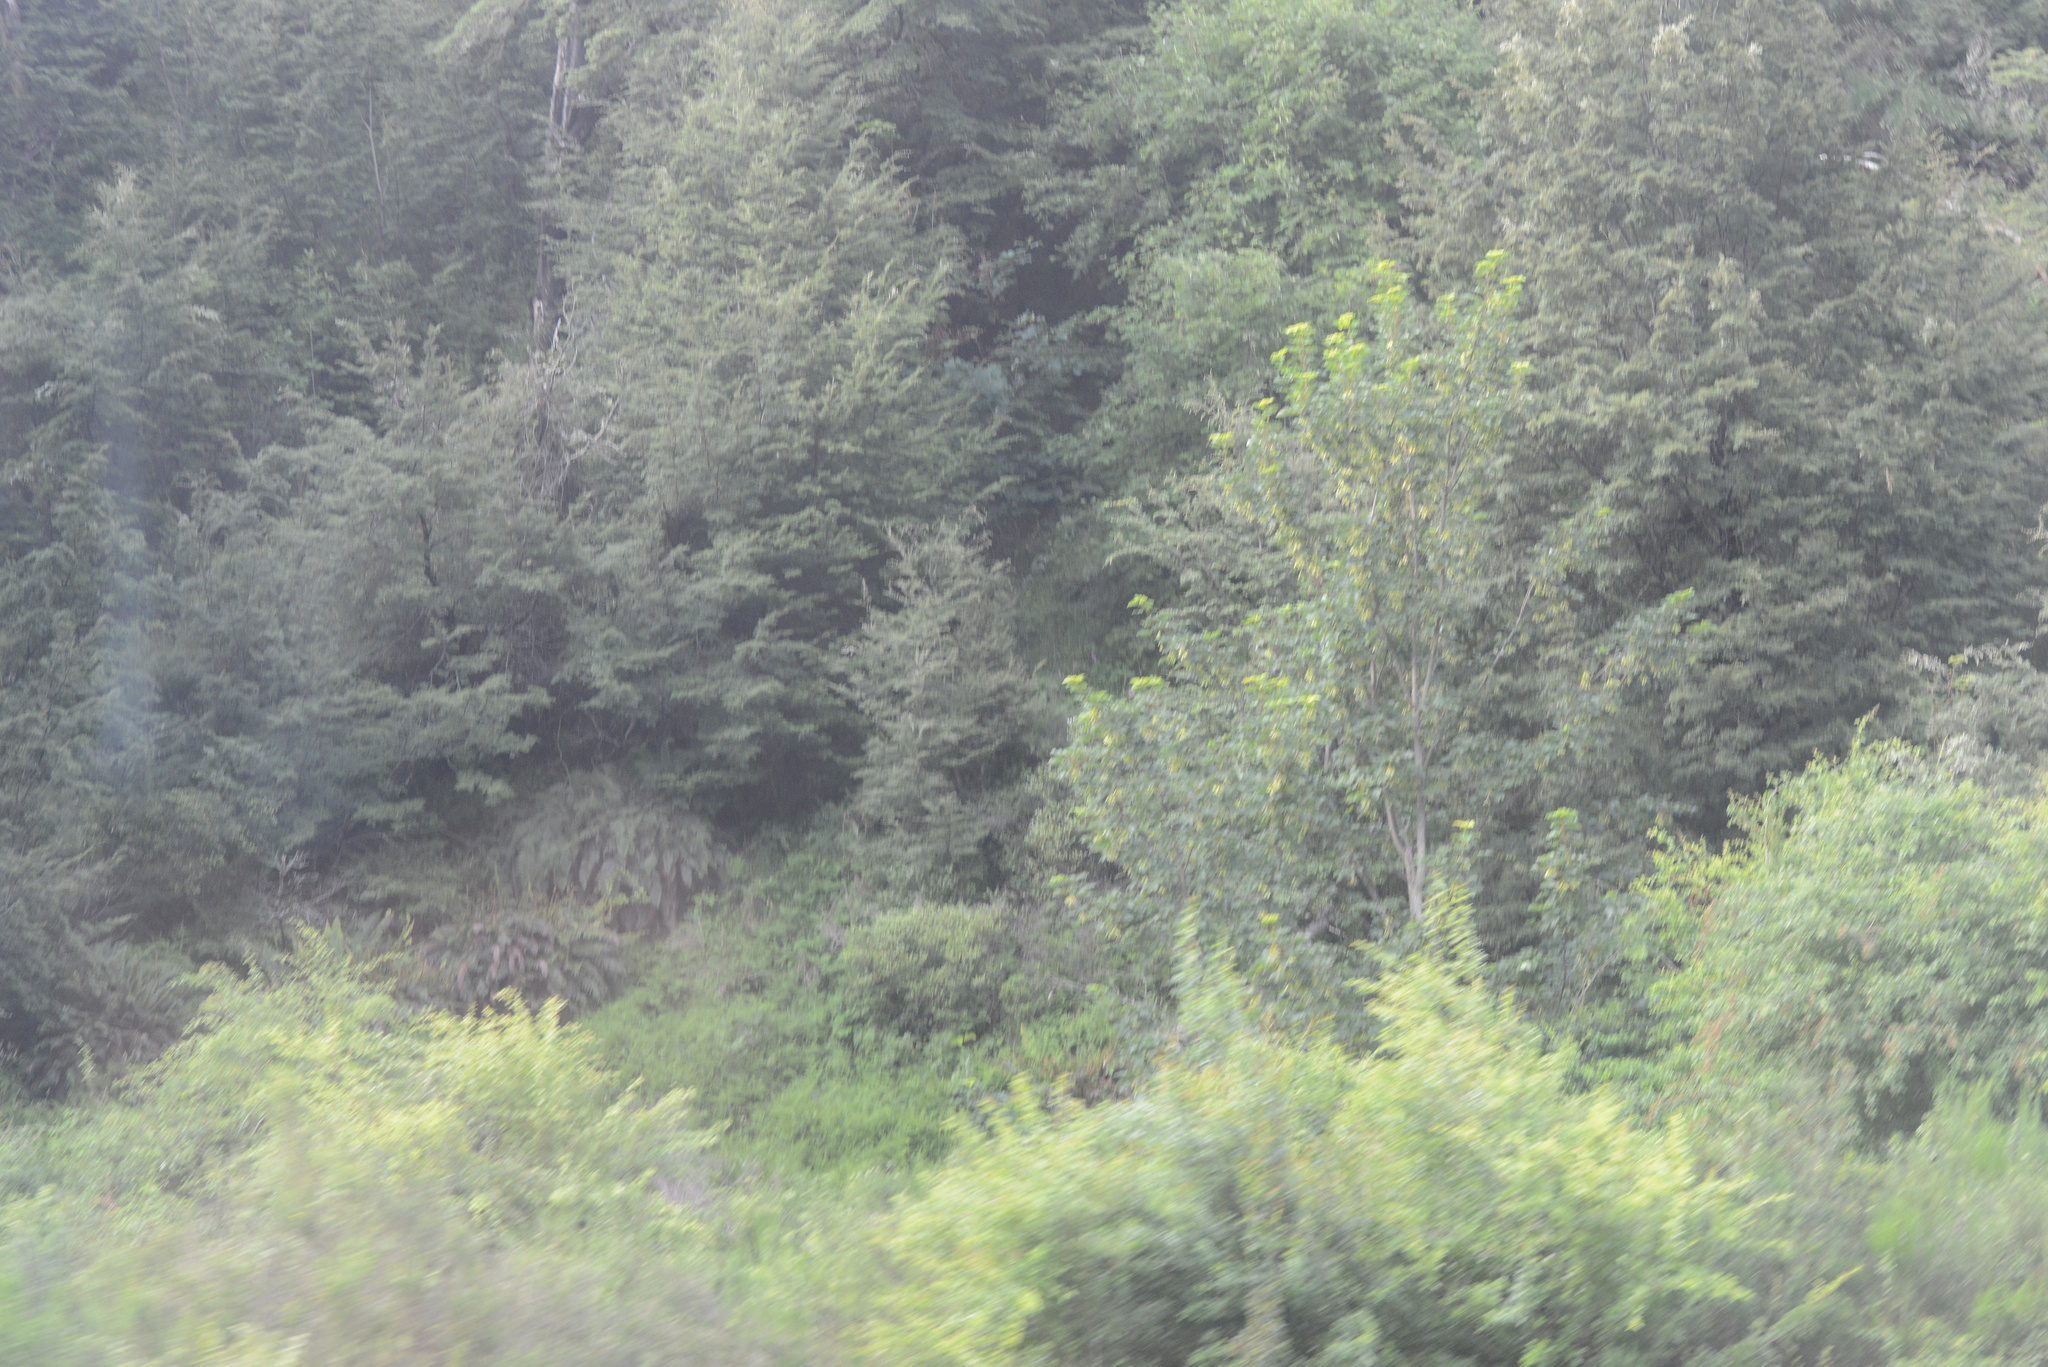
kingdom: Plantae
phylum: Tracheophyta
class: Magnoliopsida
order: Sapindales
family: Sapindaceae
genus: Acer
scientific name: Acer pseudoplatanus
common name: Sycamore
